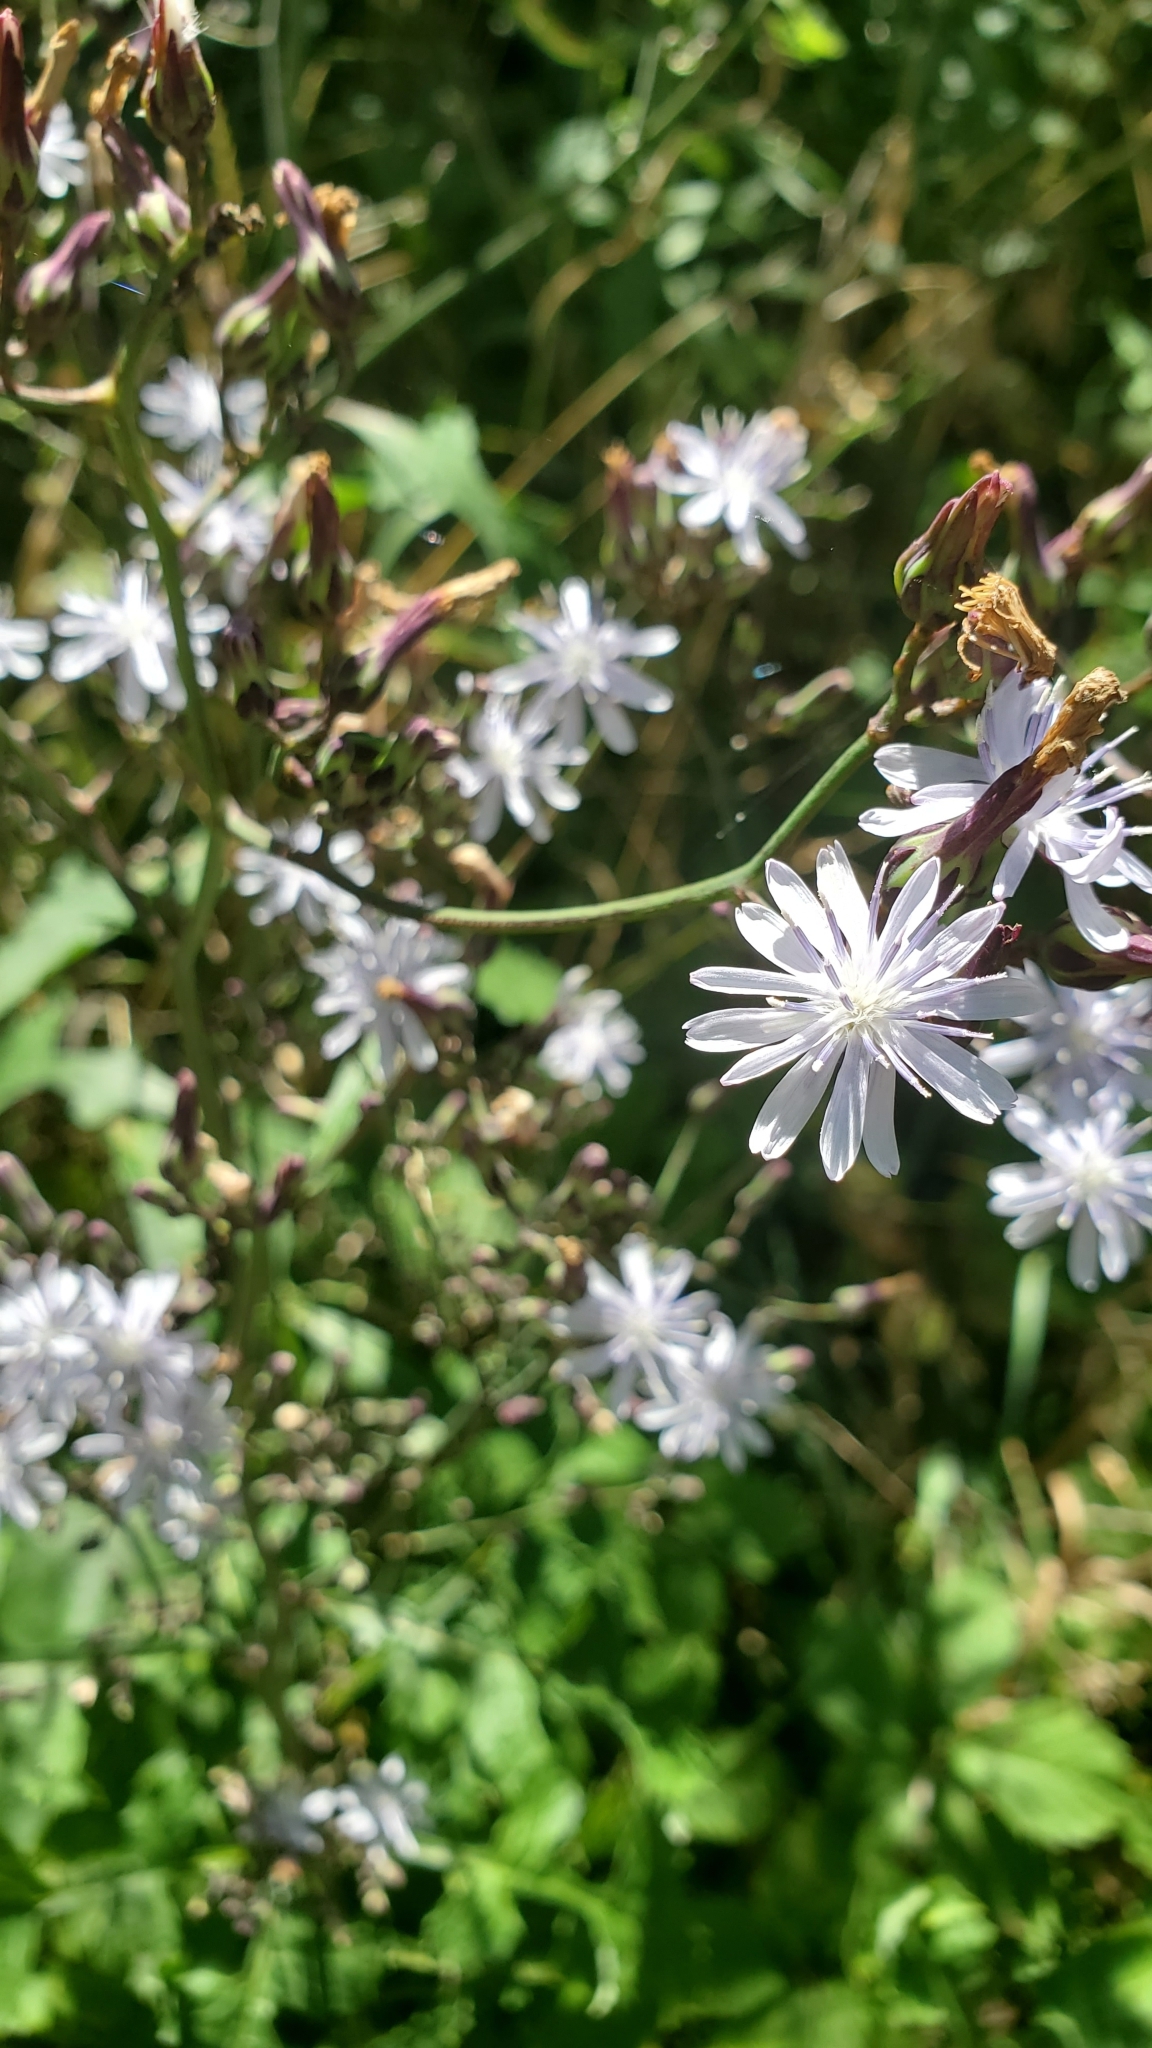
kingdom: Plantae
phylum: Tracheophyta
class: Magnoliopsida
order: Asterales
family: Asteraceae
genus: Lactuca
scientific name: Lactuca floridana
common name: Woodland lettuce
